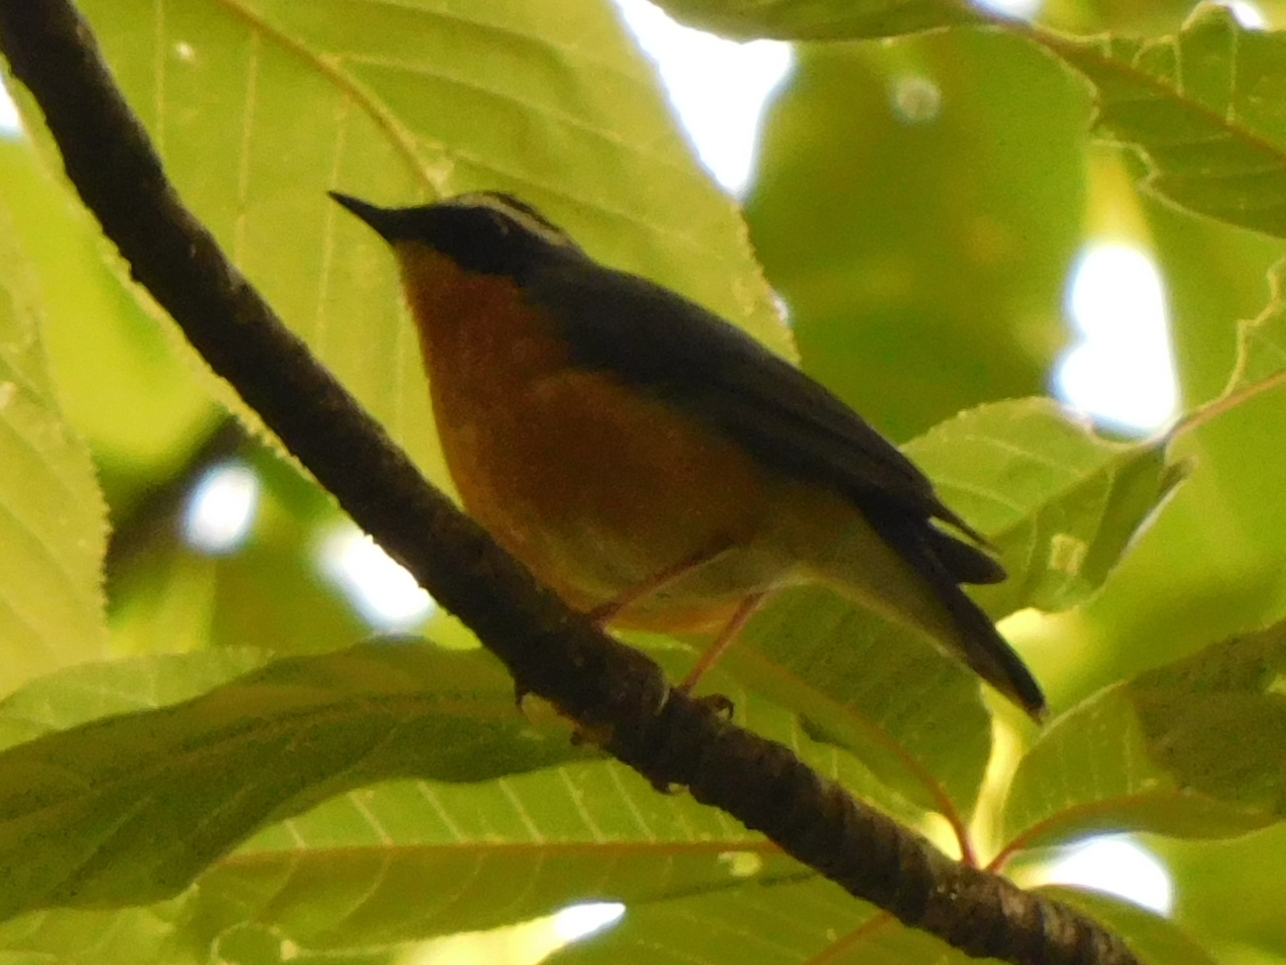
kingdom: Animalia
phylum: Chordata
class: Aves
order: Passeriformes
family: Muscicapidae
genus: Luscinia
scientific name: Luscinia brunnea
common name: Indian blue robin
